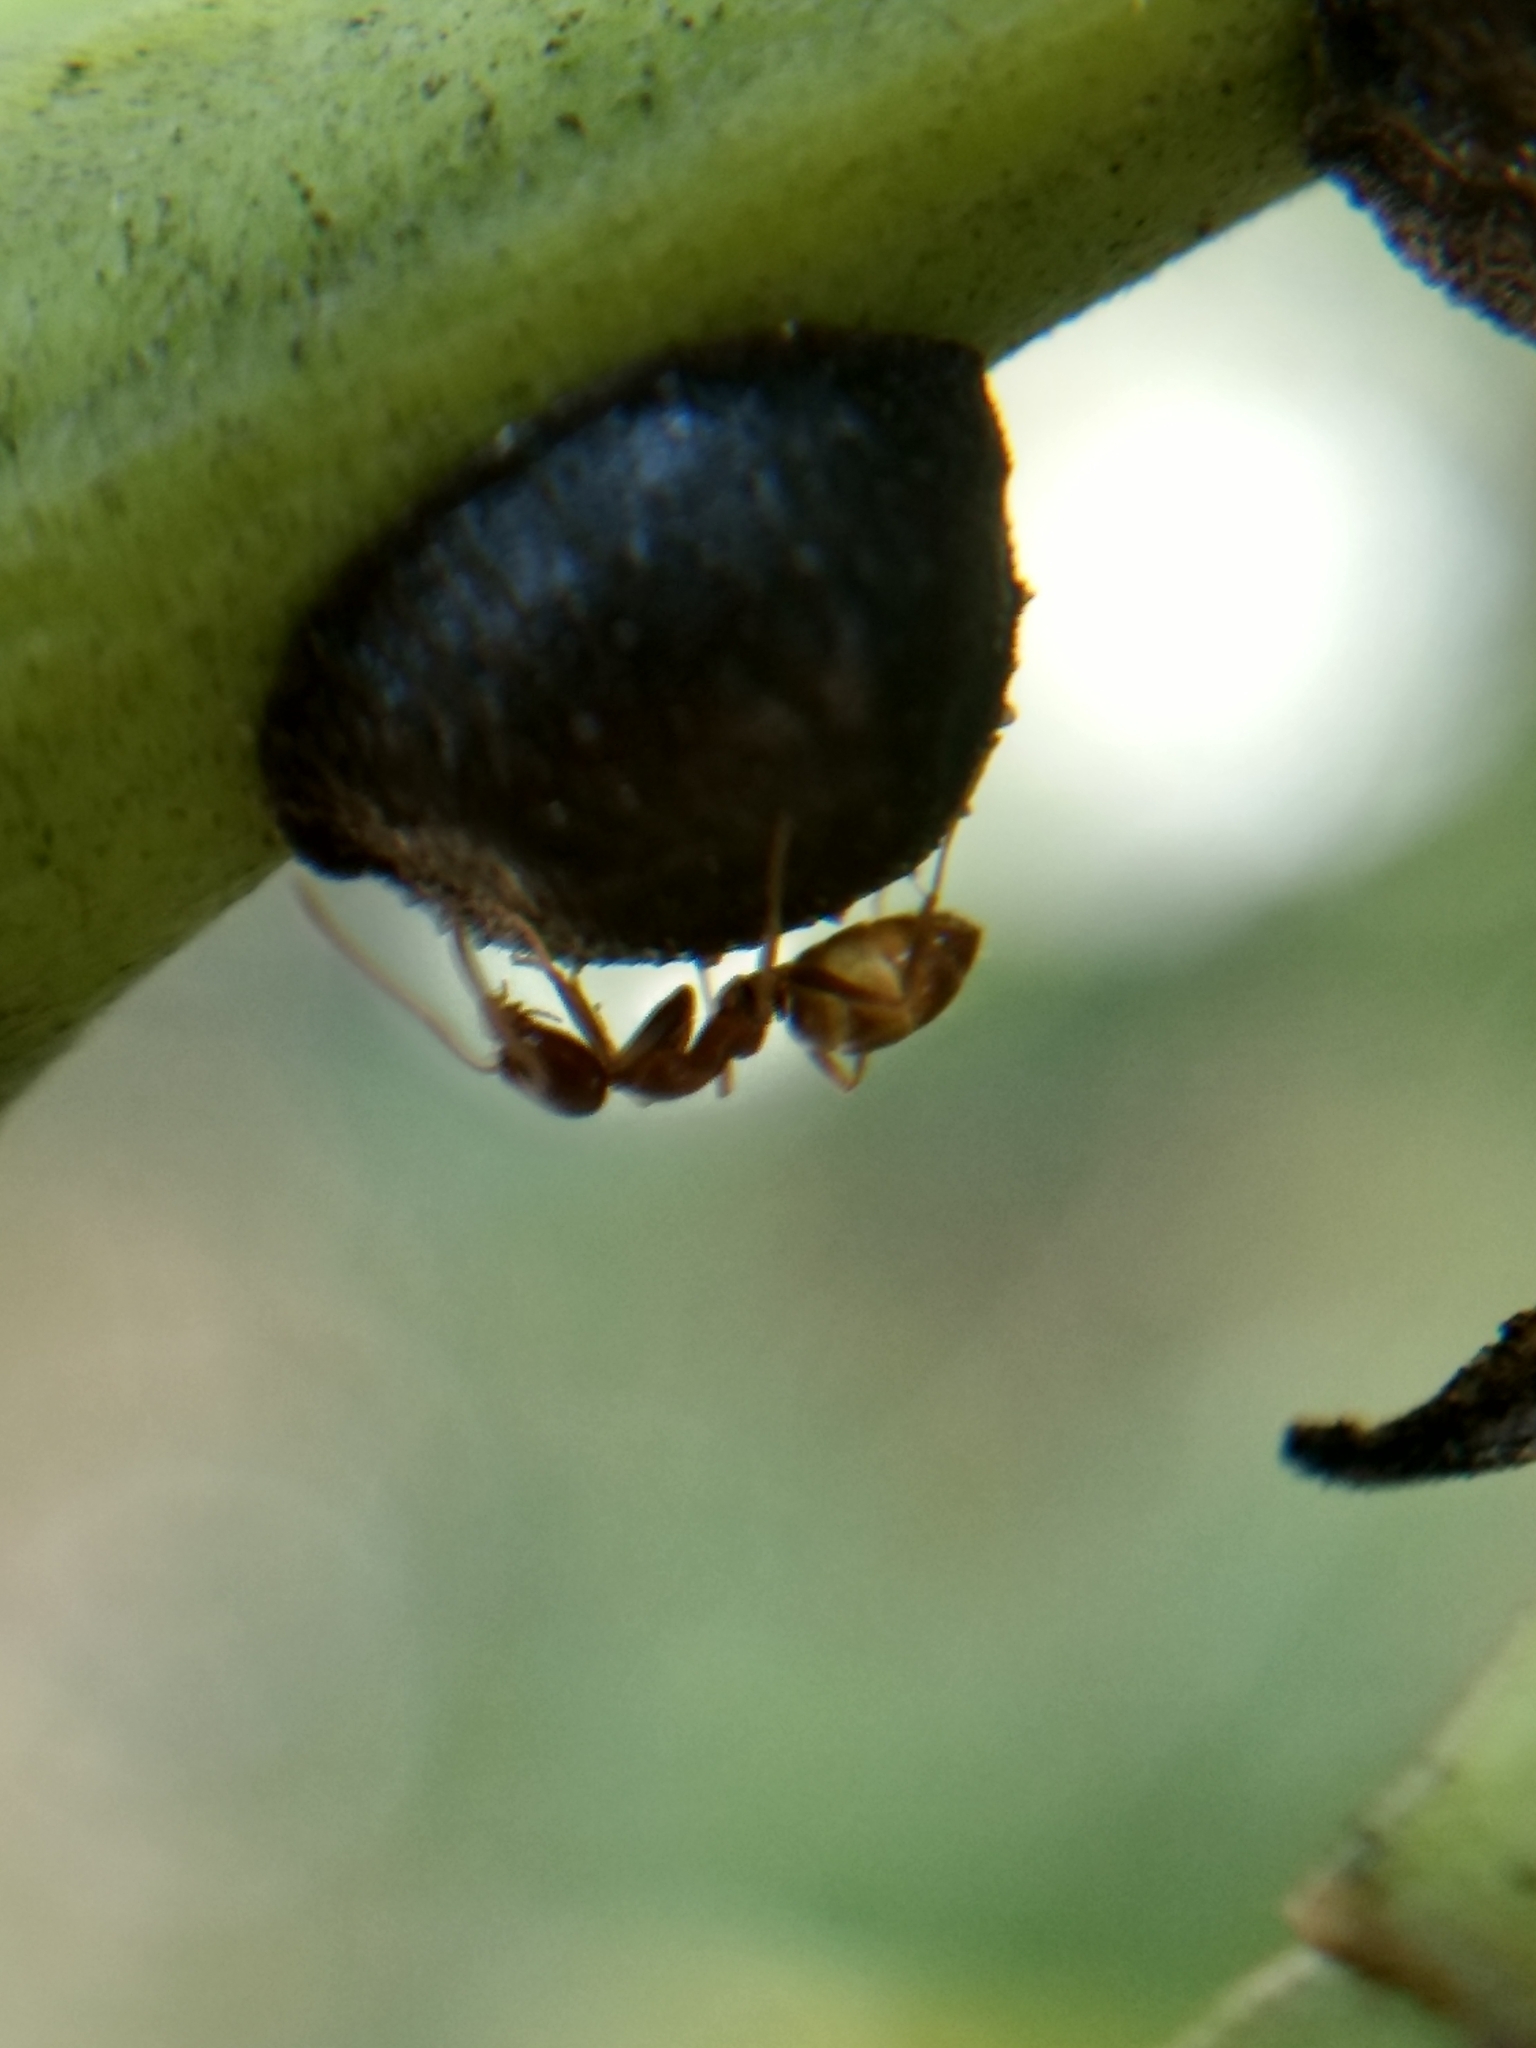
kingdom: Animalia
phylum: Arthropoda
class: Insecta
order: Hymenoptera
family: Formicidae
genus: Linepithema
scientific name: Linepithema humile
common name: Argentine ant
